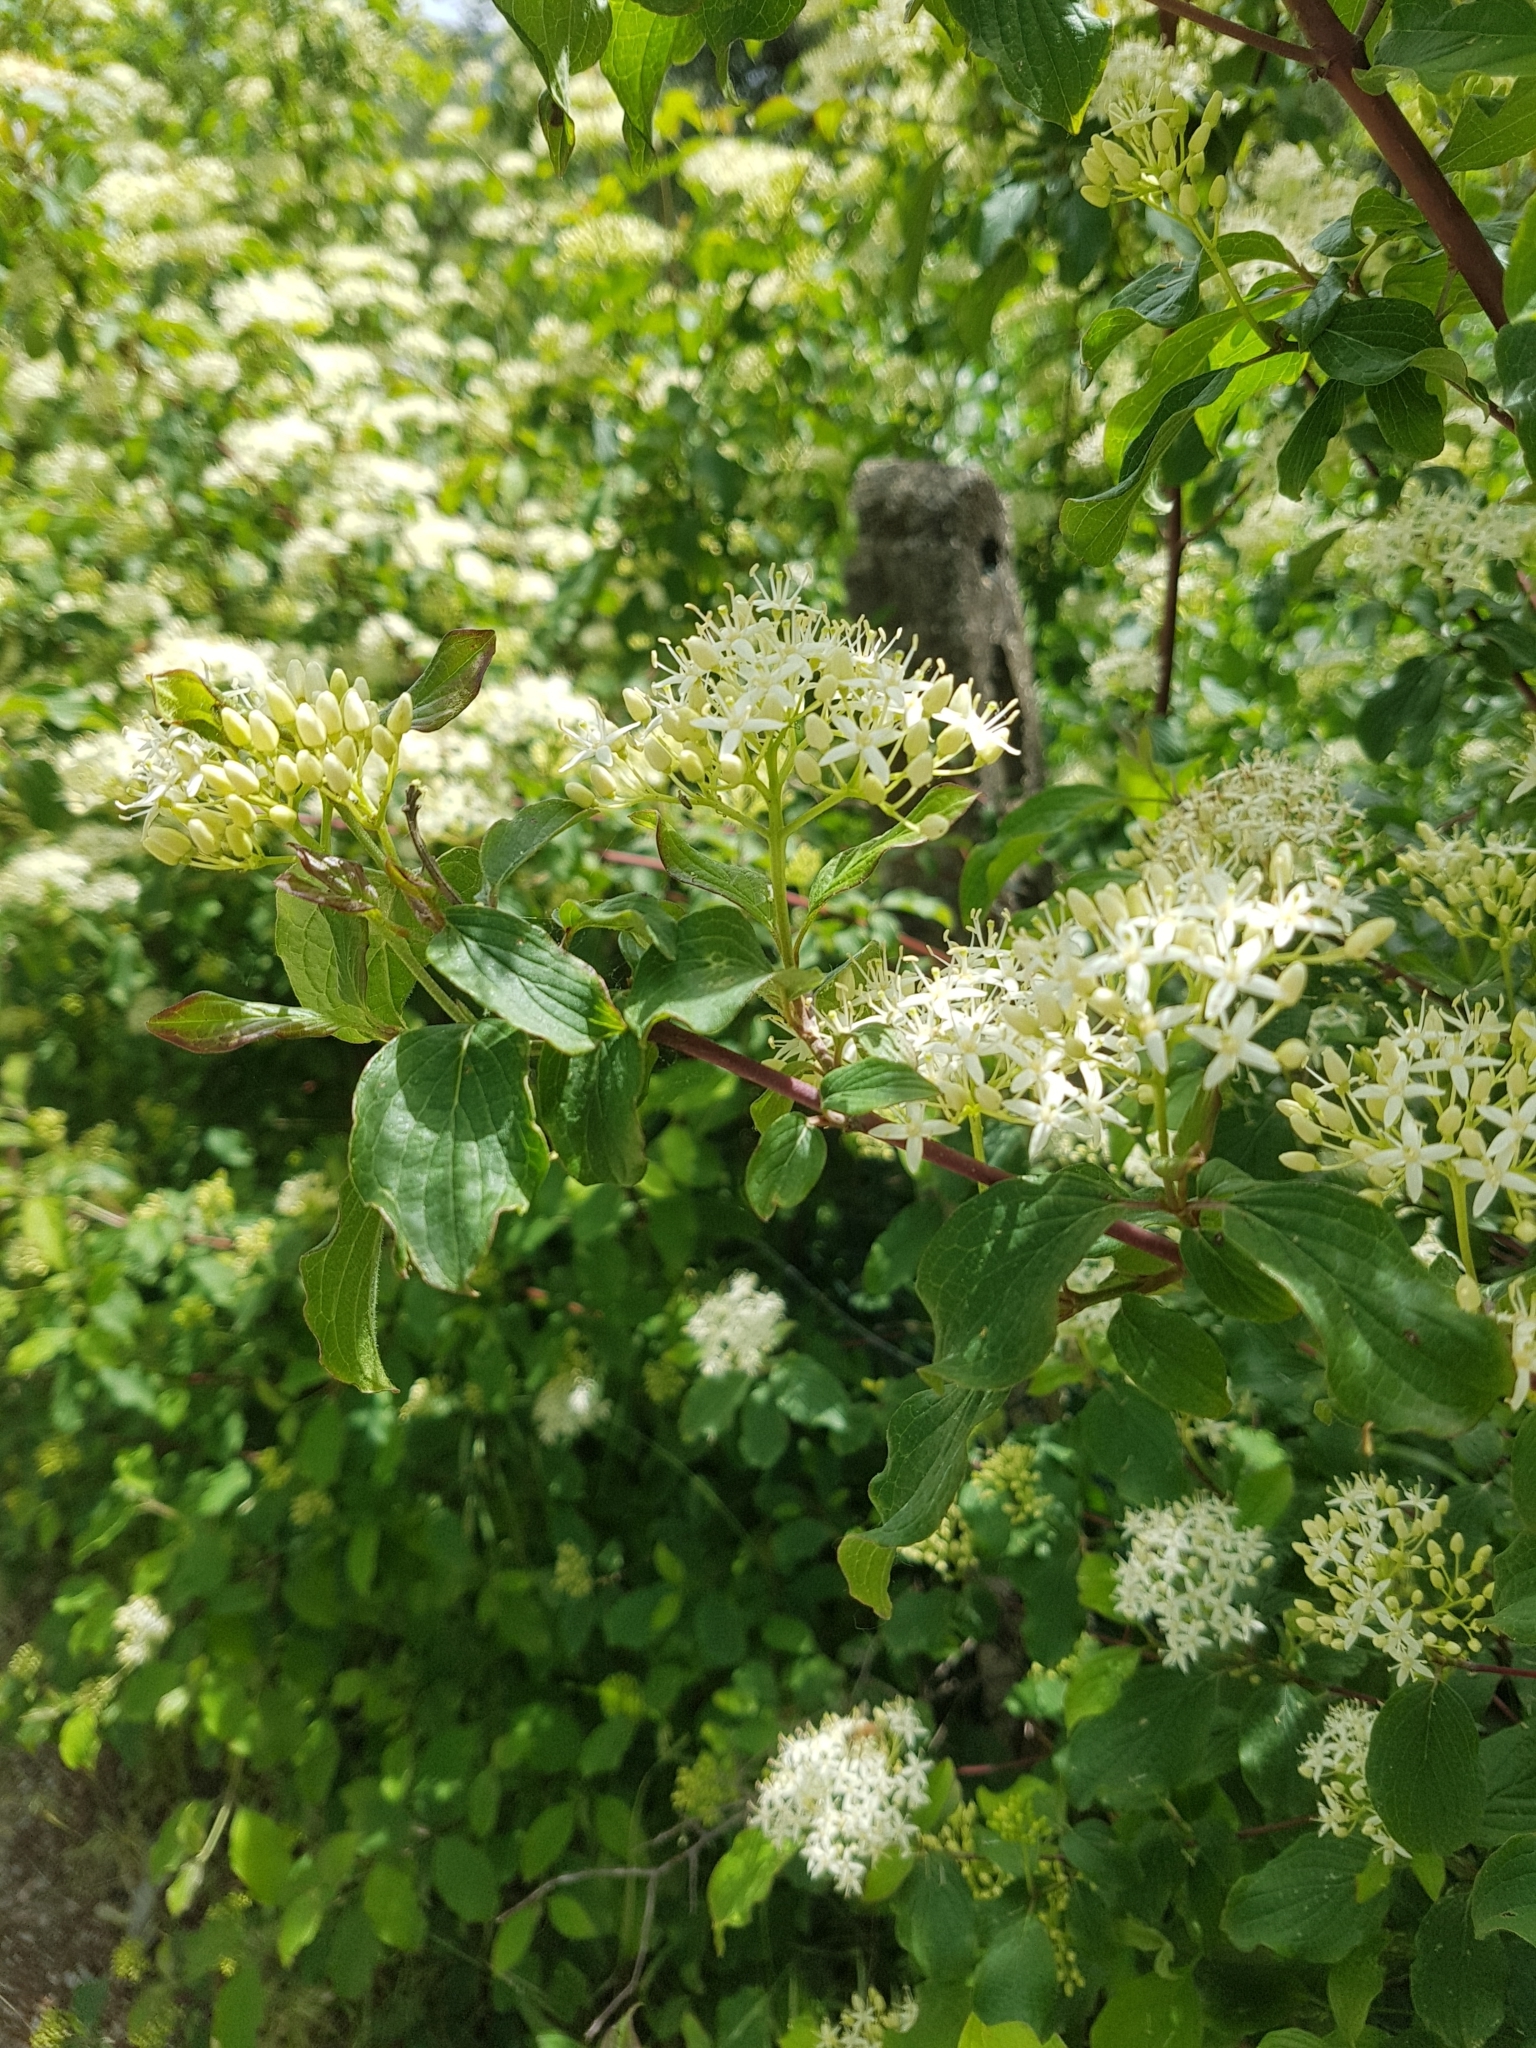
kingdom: Plantae
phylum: Tracheophyta
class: Magnoliopsida
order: Cornales
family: Cornaceae
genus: Cornus
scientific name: Cornus sanguinea
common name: Dogwood
